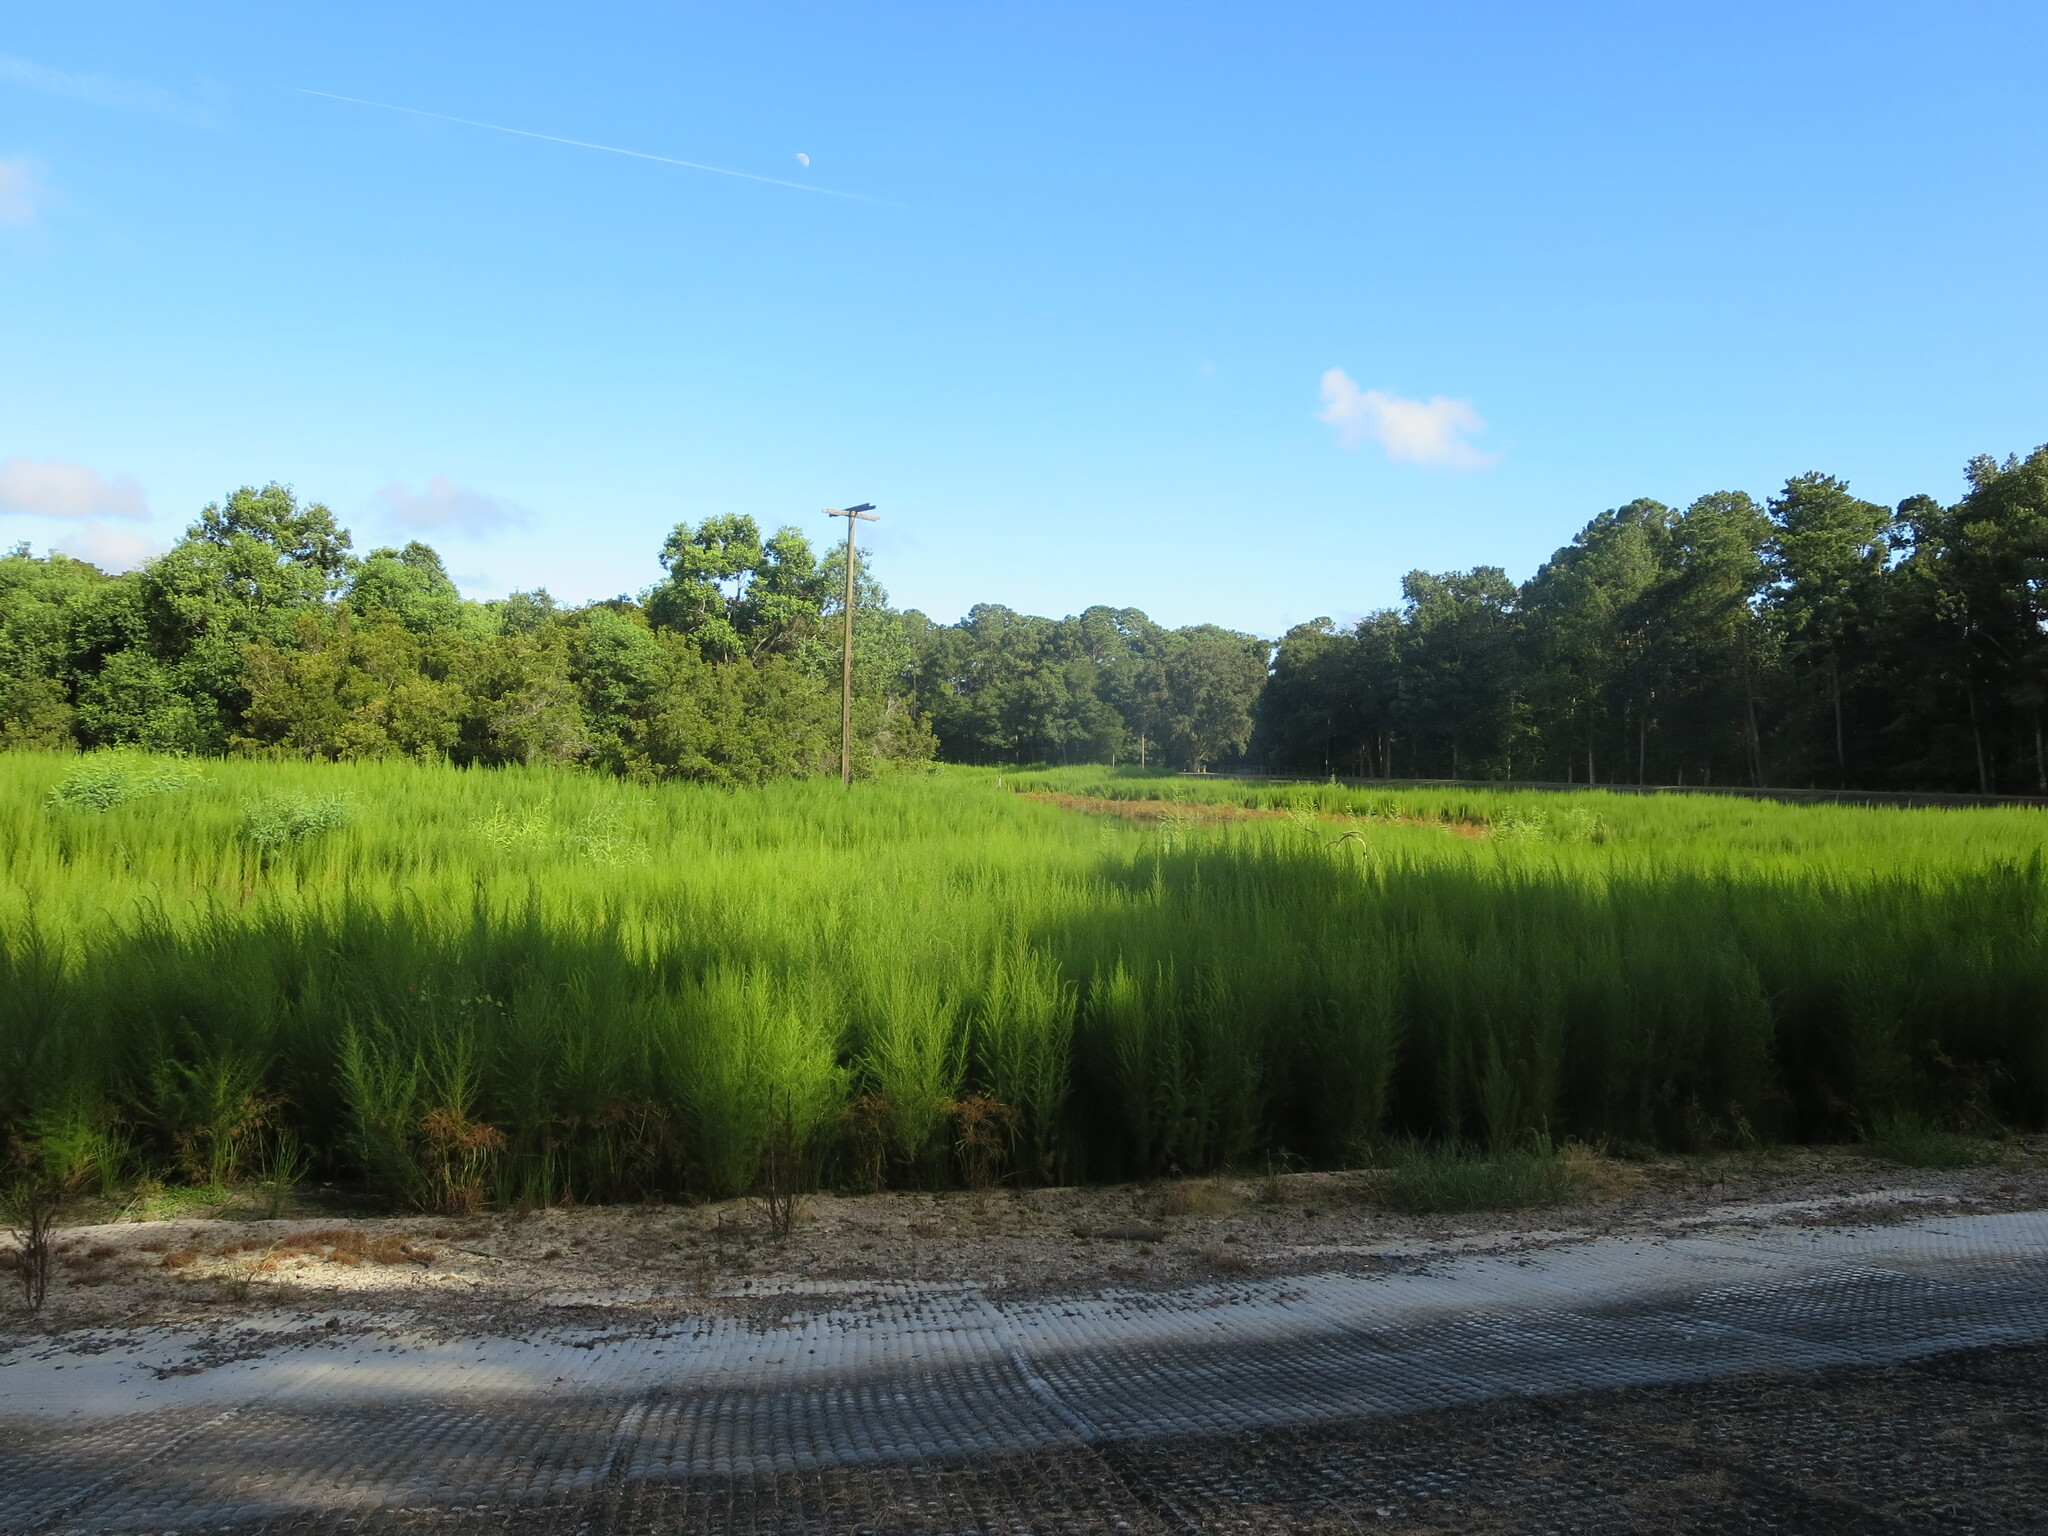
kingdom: Plantae
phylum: Tracheophyta
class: Magnoliopsida
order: Asterales
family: Asteraceae
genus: Eupatorium
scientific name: Eupatorium capillifolium
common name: Dog-fennel
